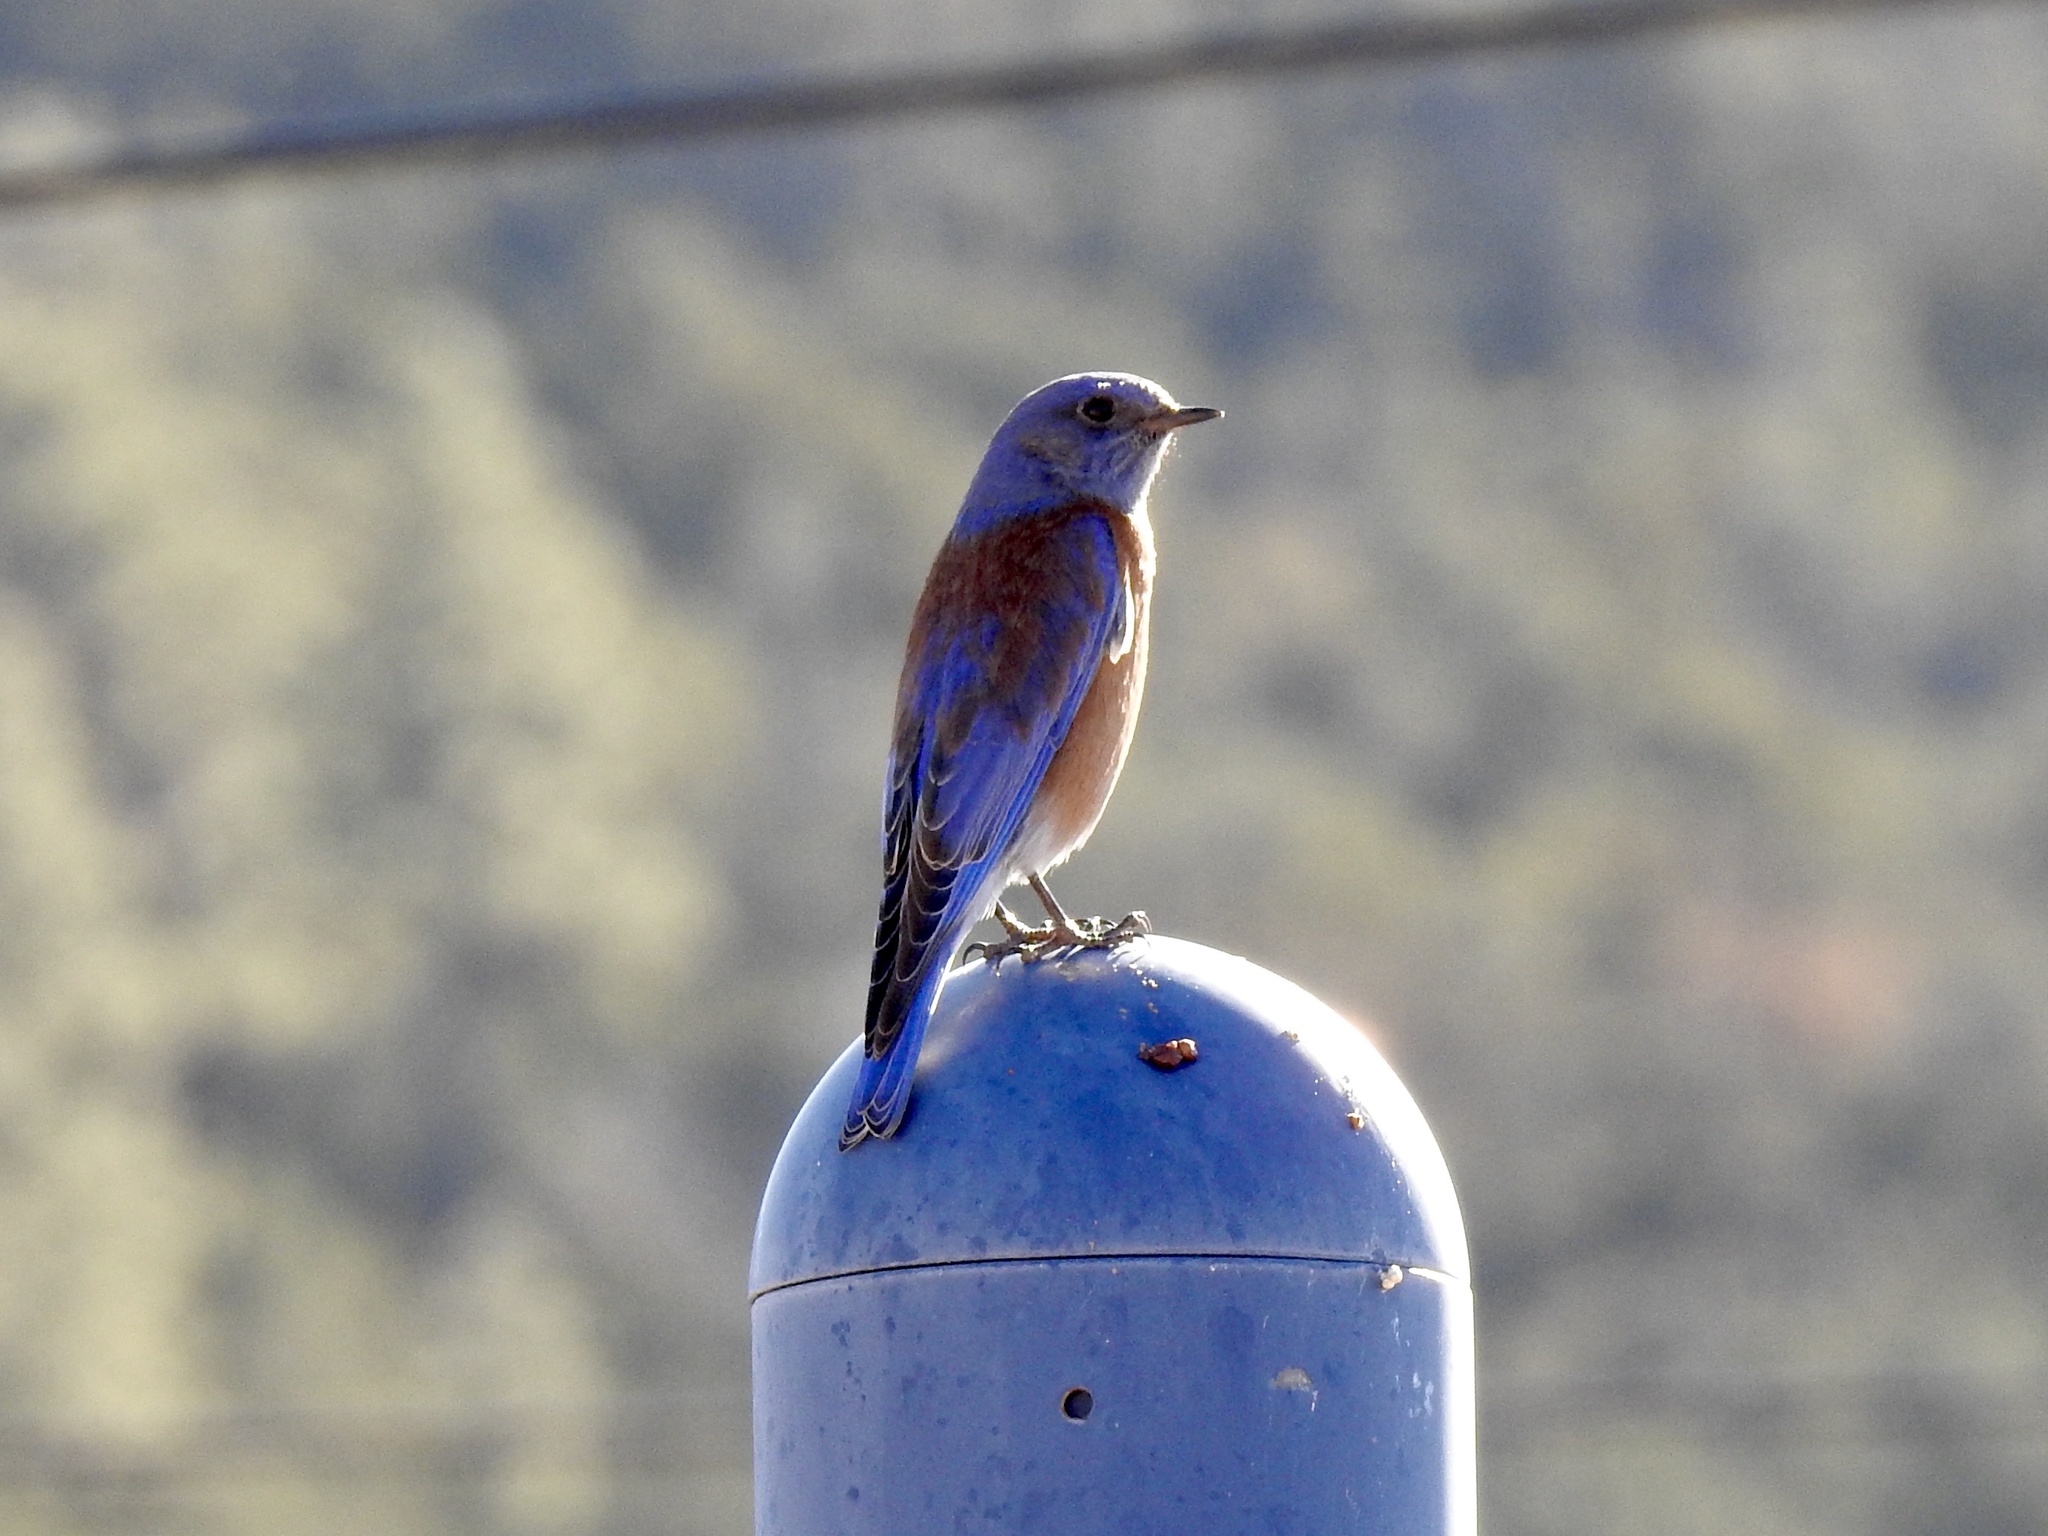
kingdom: Animalia
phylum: Chordata
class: Aves
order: Passeriformes
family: Turdidae
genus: Sialia
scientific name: Sialia mexicana
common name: Western bluebird
